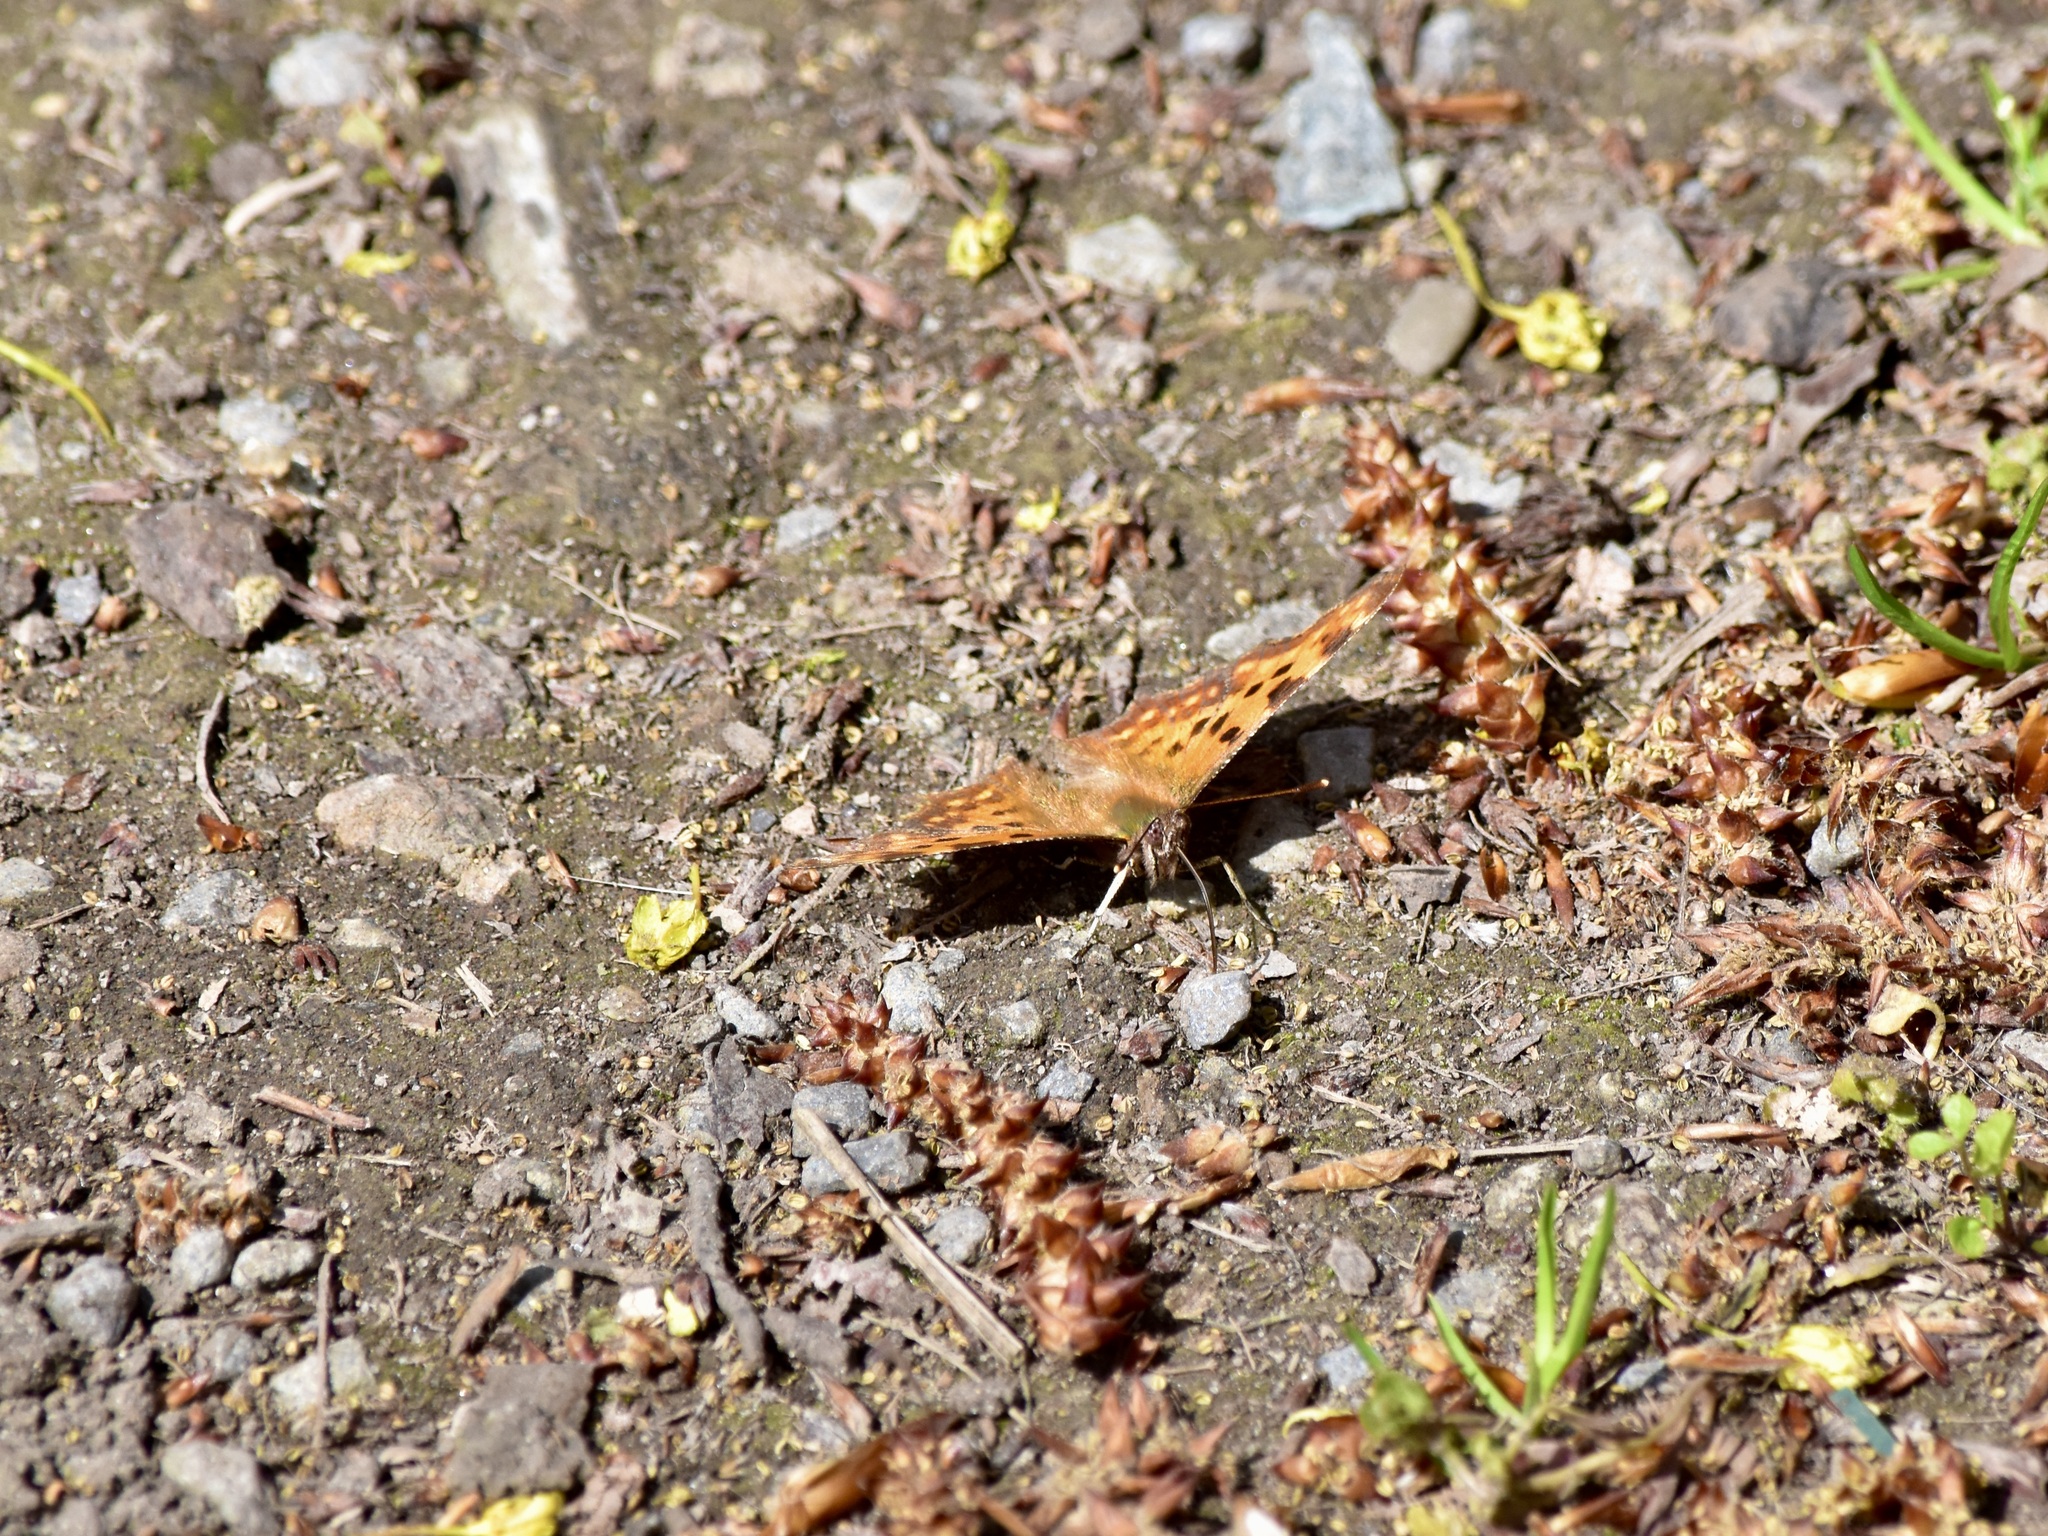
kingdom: Animalia
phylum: Arthropoda
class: Insecta
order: Lepidoptera
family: Nymphalidae
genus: Polygonia
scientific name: Polygonia c-album
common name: Comma
